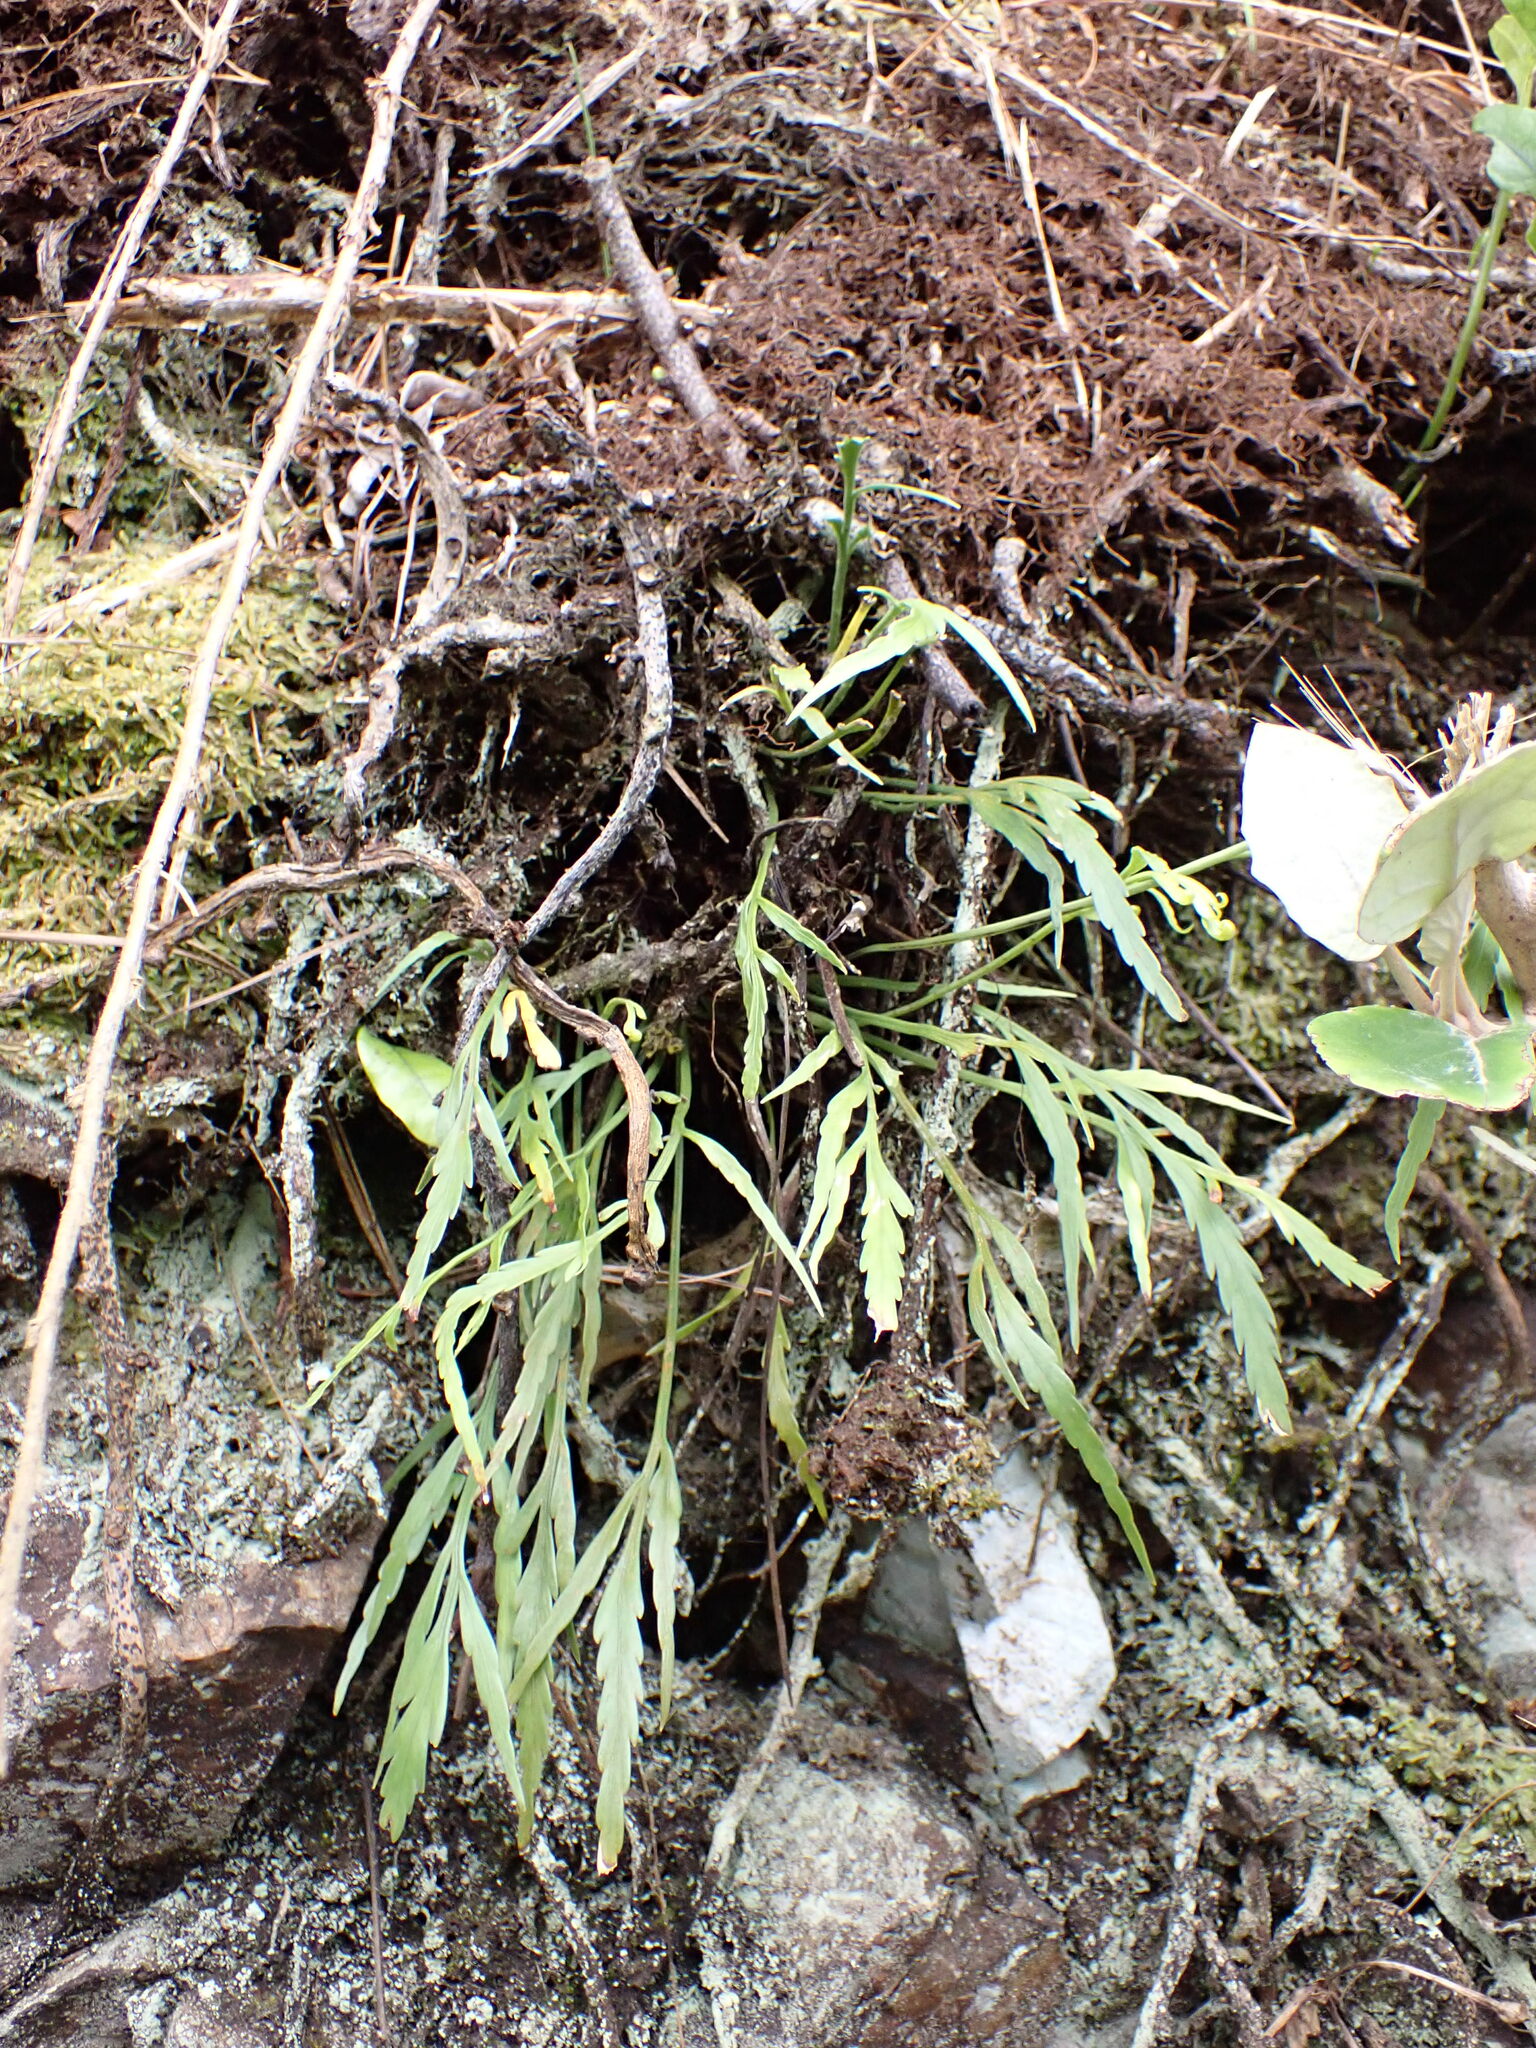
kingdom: Plantae
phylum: Tracheophyta
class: Polypodiopsida
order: Polypodiales
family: Aspleniaceae
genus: Asplenium
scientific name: Asplenium flaccidum
